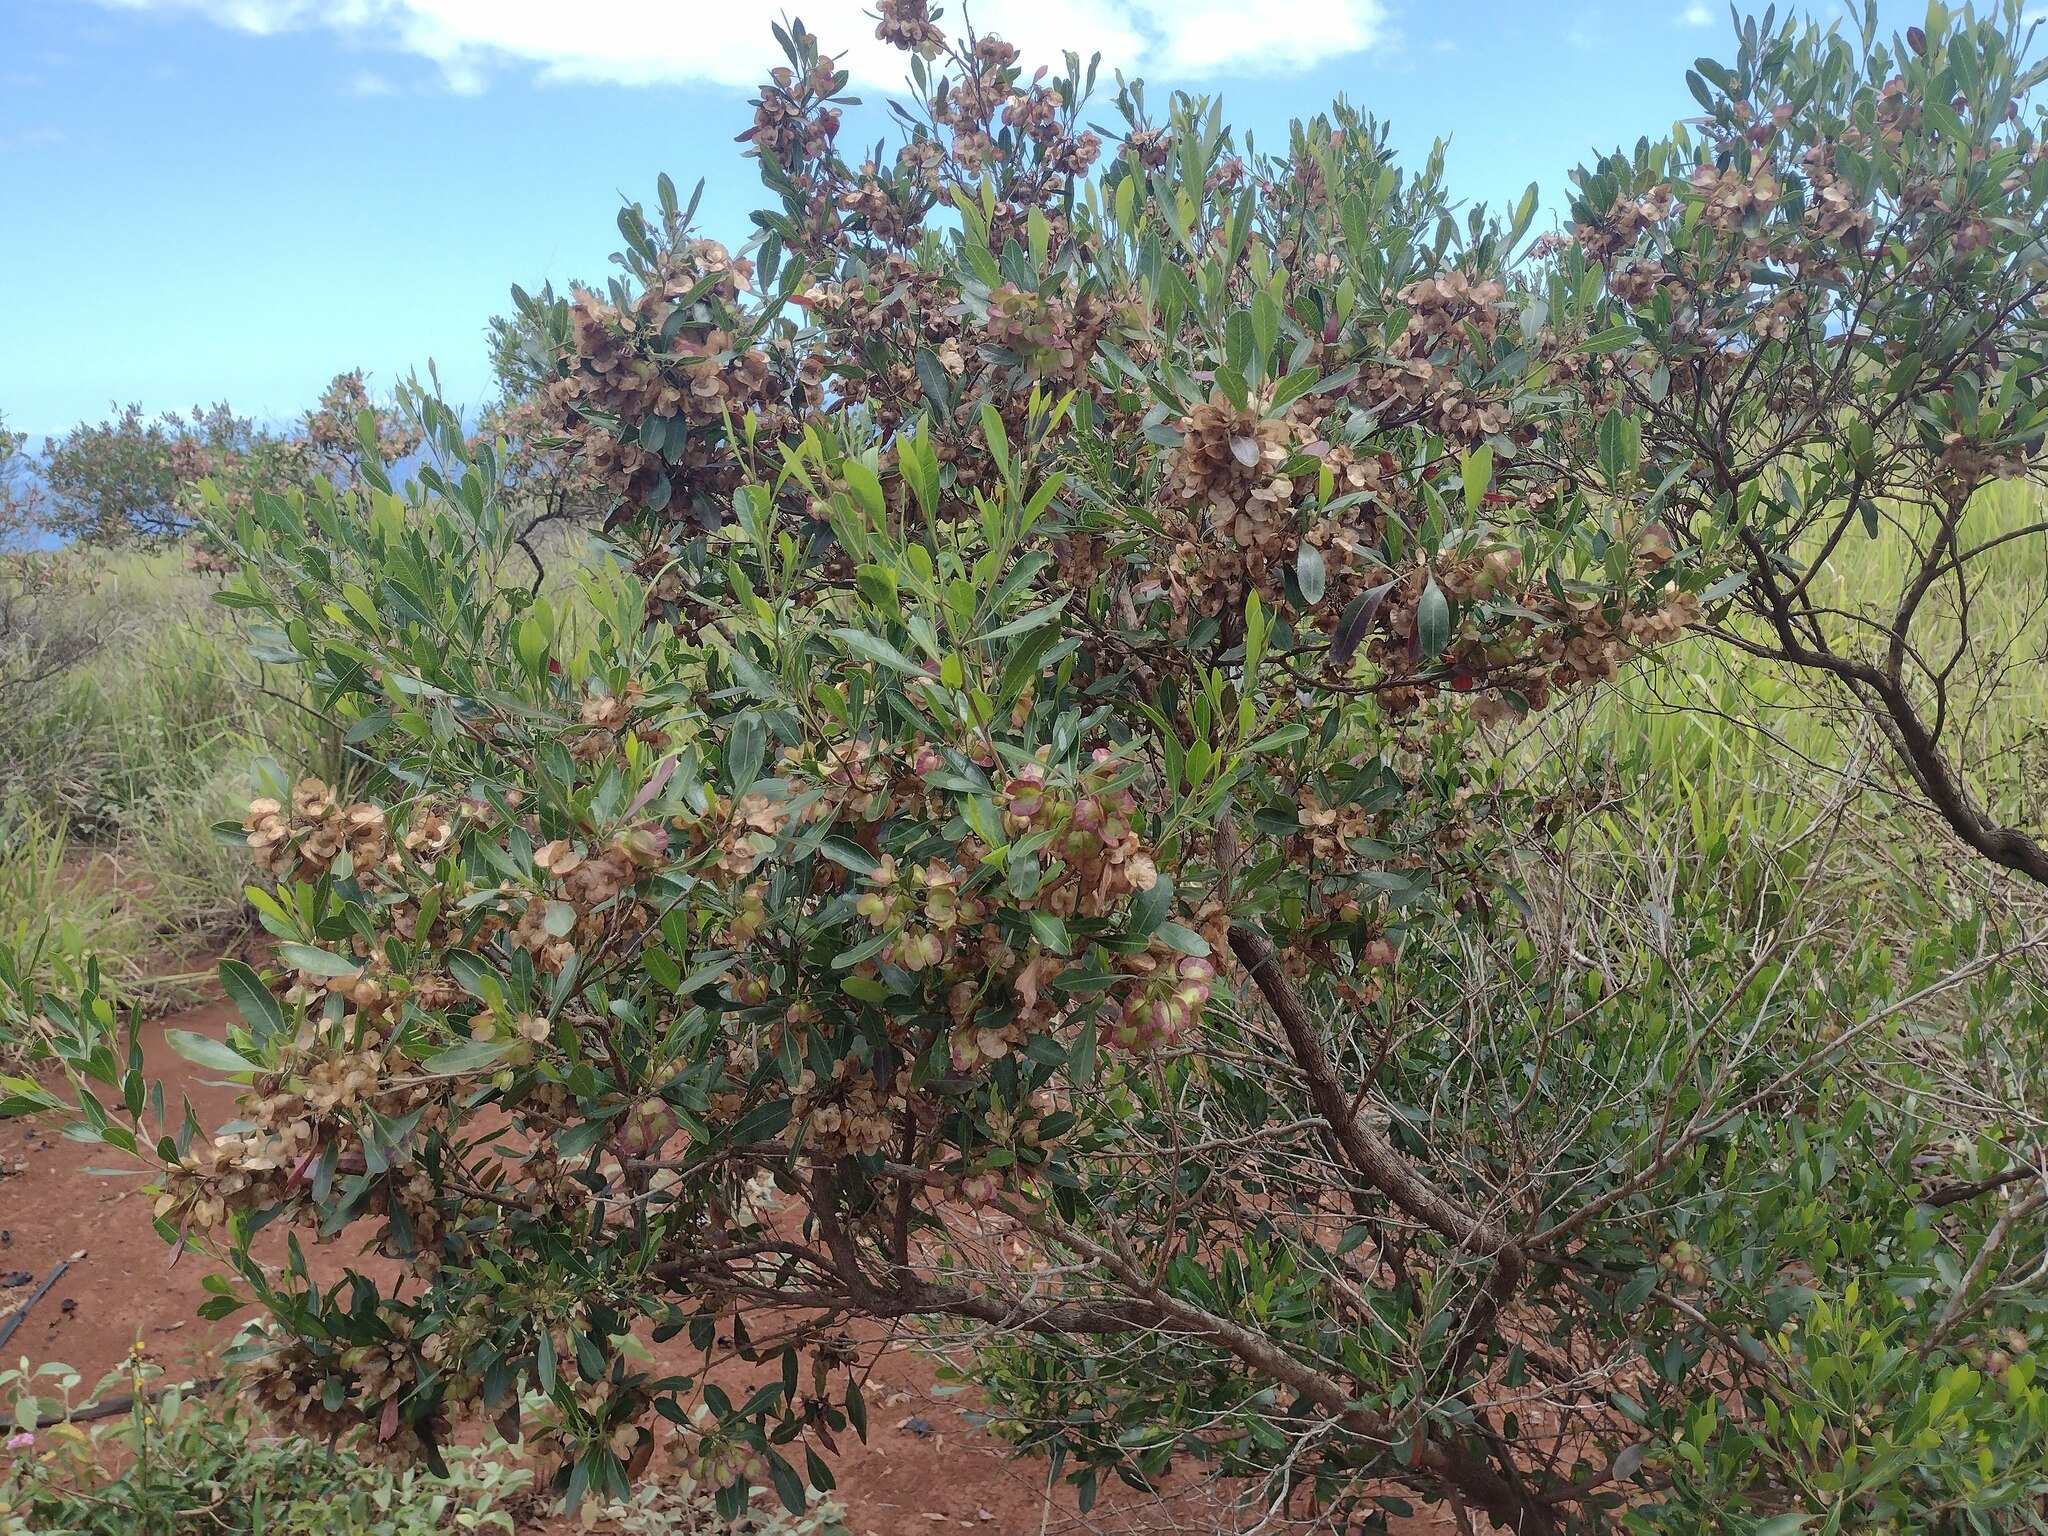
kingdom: Plantae
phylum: Tracheophyta
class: Magnoliopsida
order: Sapindales
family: Sapindaceae
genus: Dodonaea
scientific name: Dodonaea viscosa
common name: Hopbush
